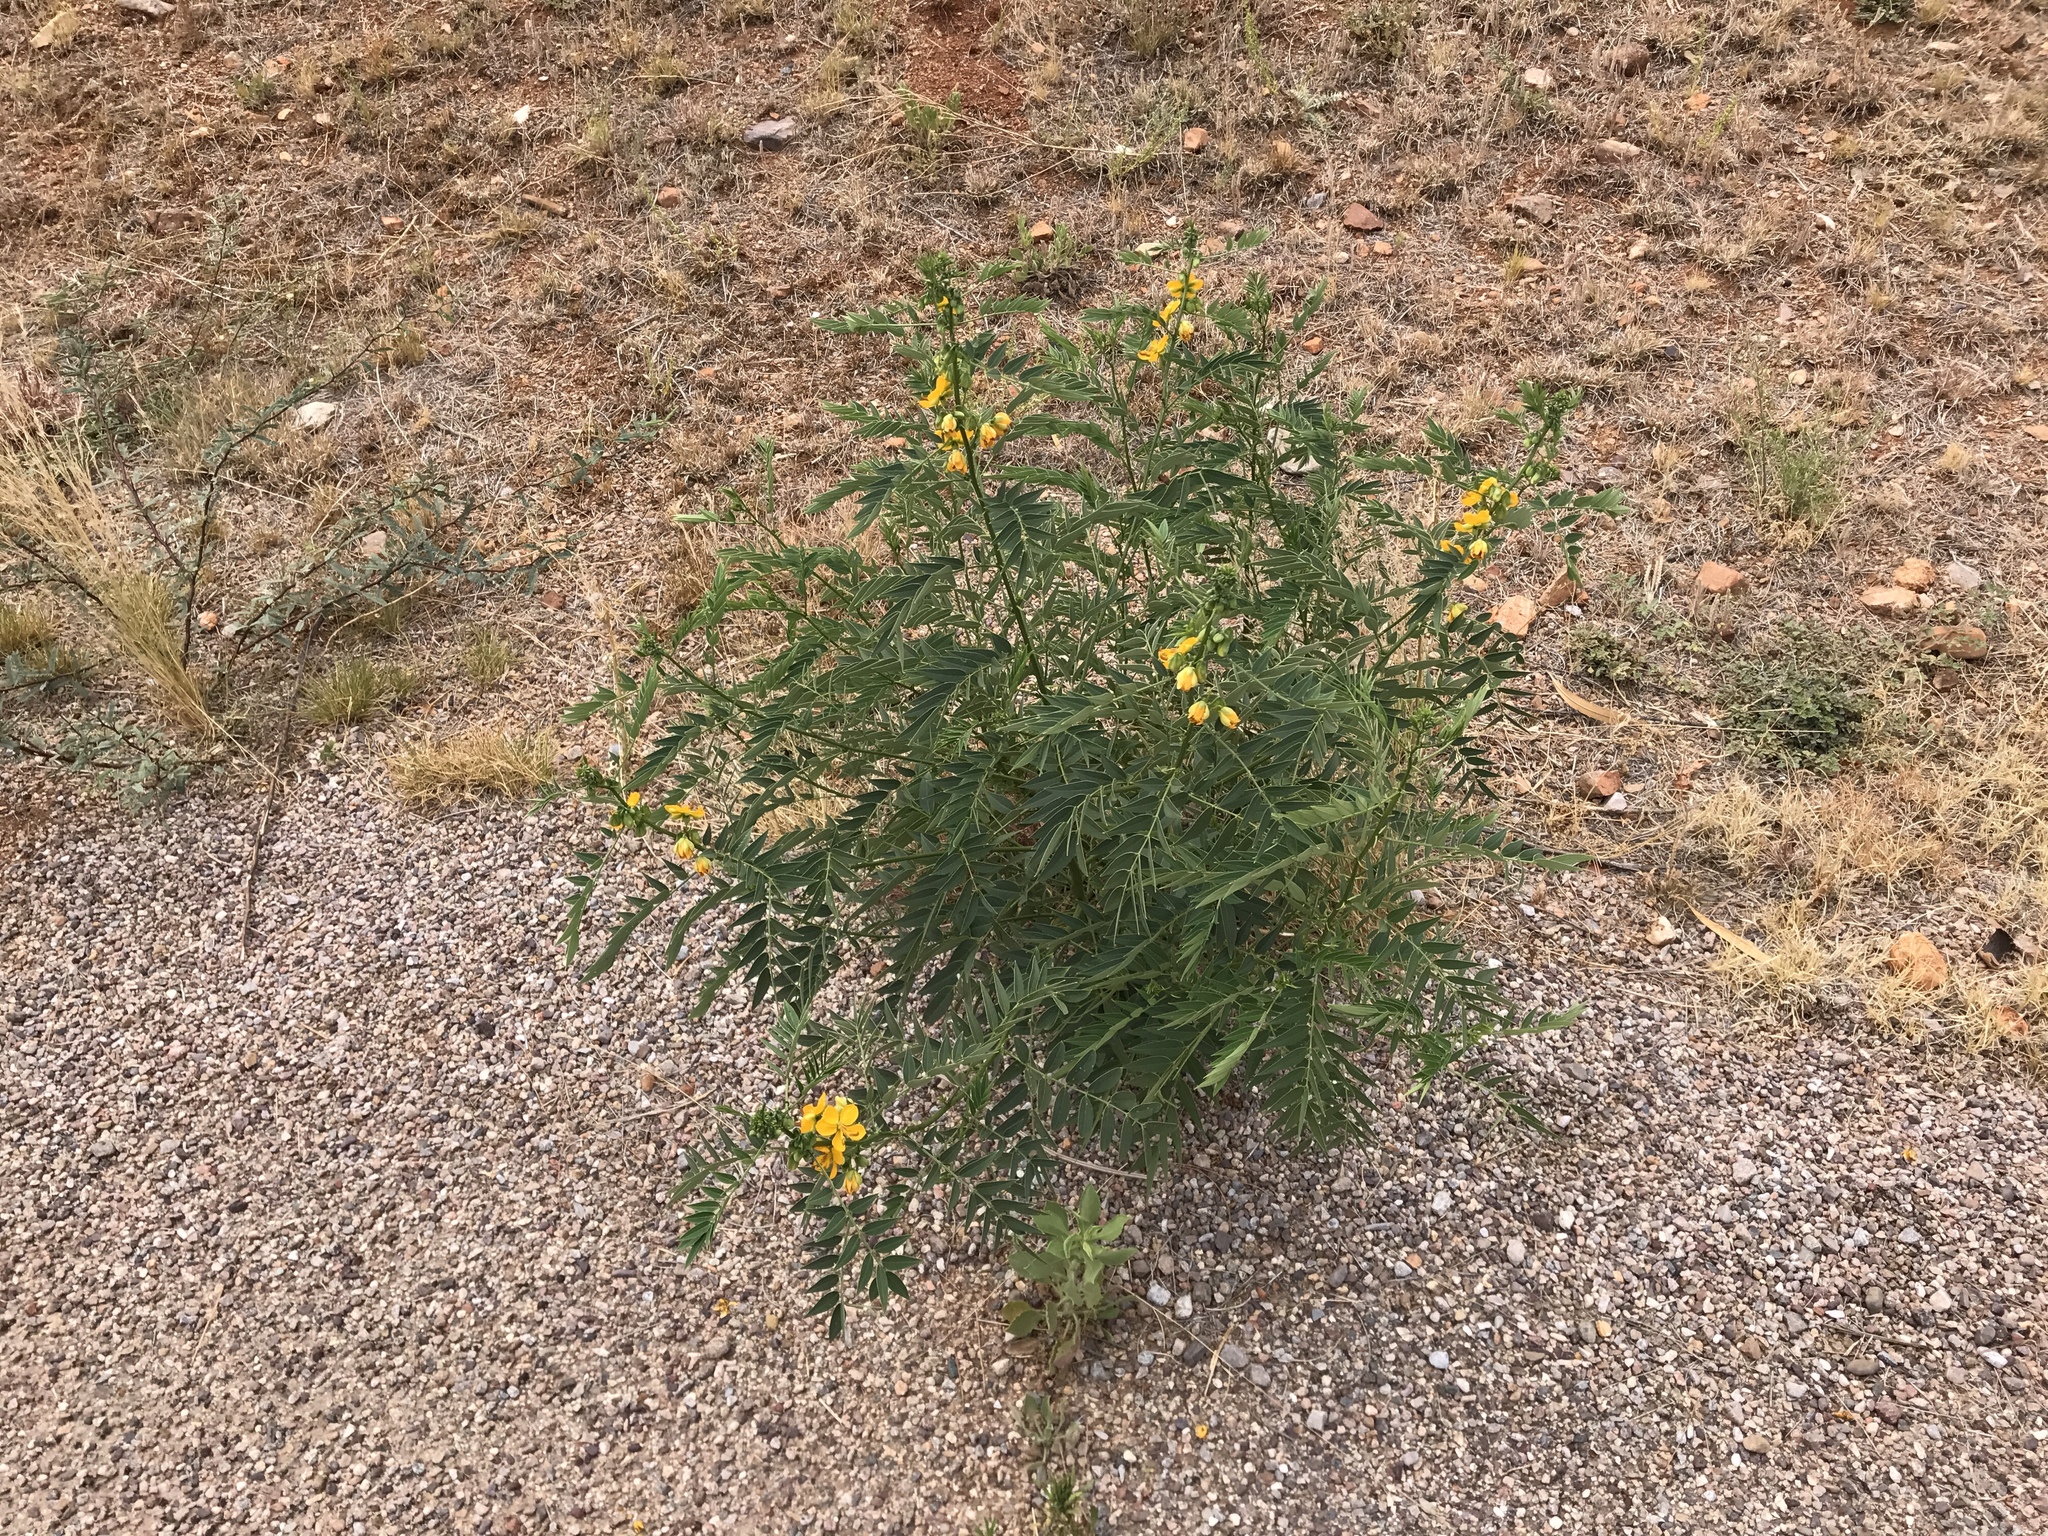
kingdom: Plantae
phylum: Tracheophyta
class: Magnoliopsida
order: Fabales
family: Fabaceae
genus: Senna
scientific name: Senna hirsuta
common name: Woolly senna
